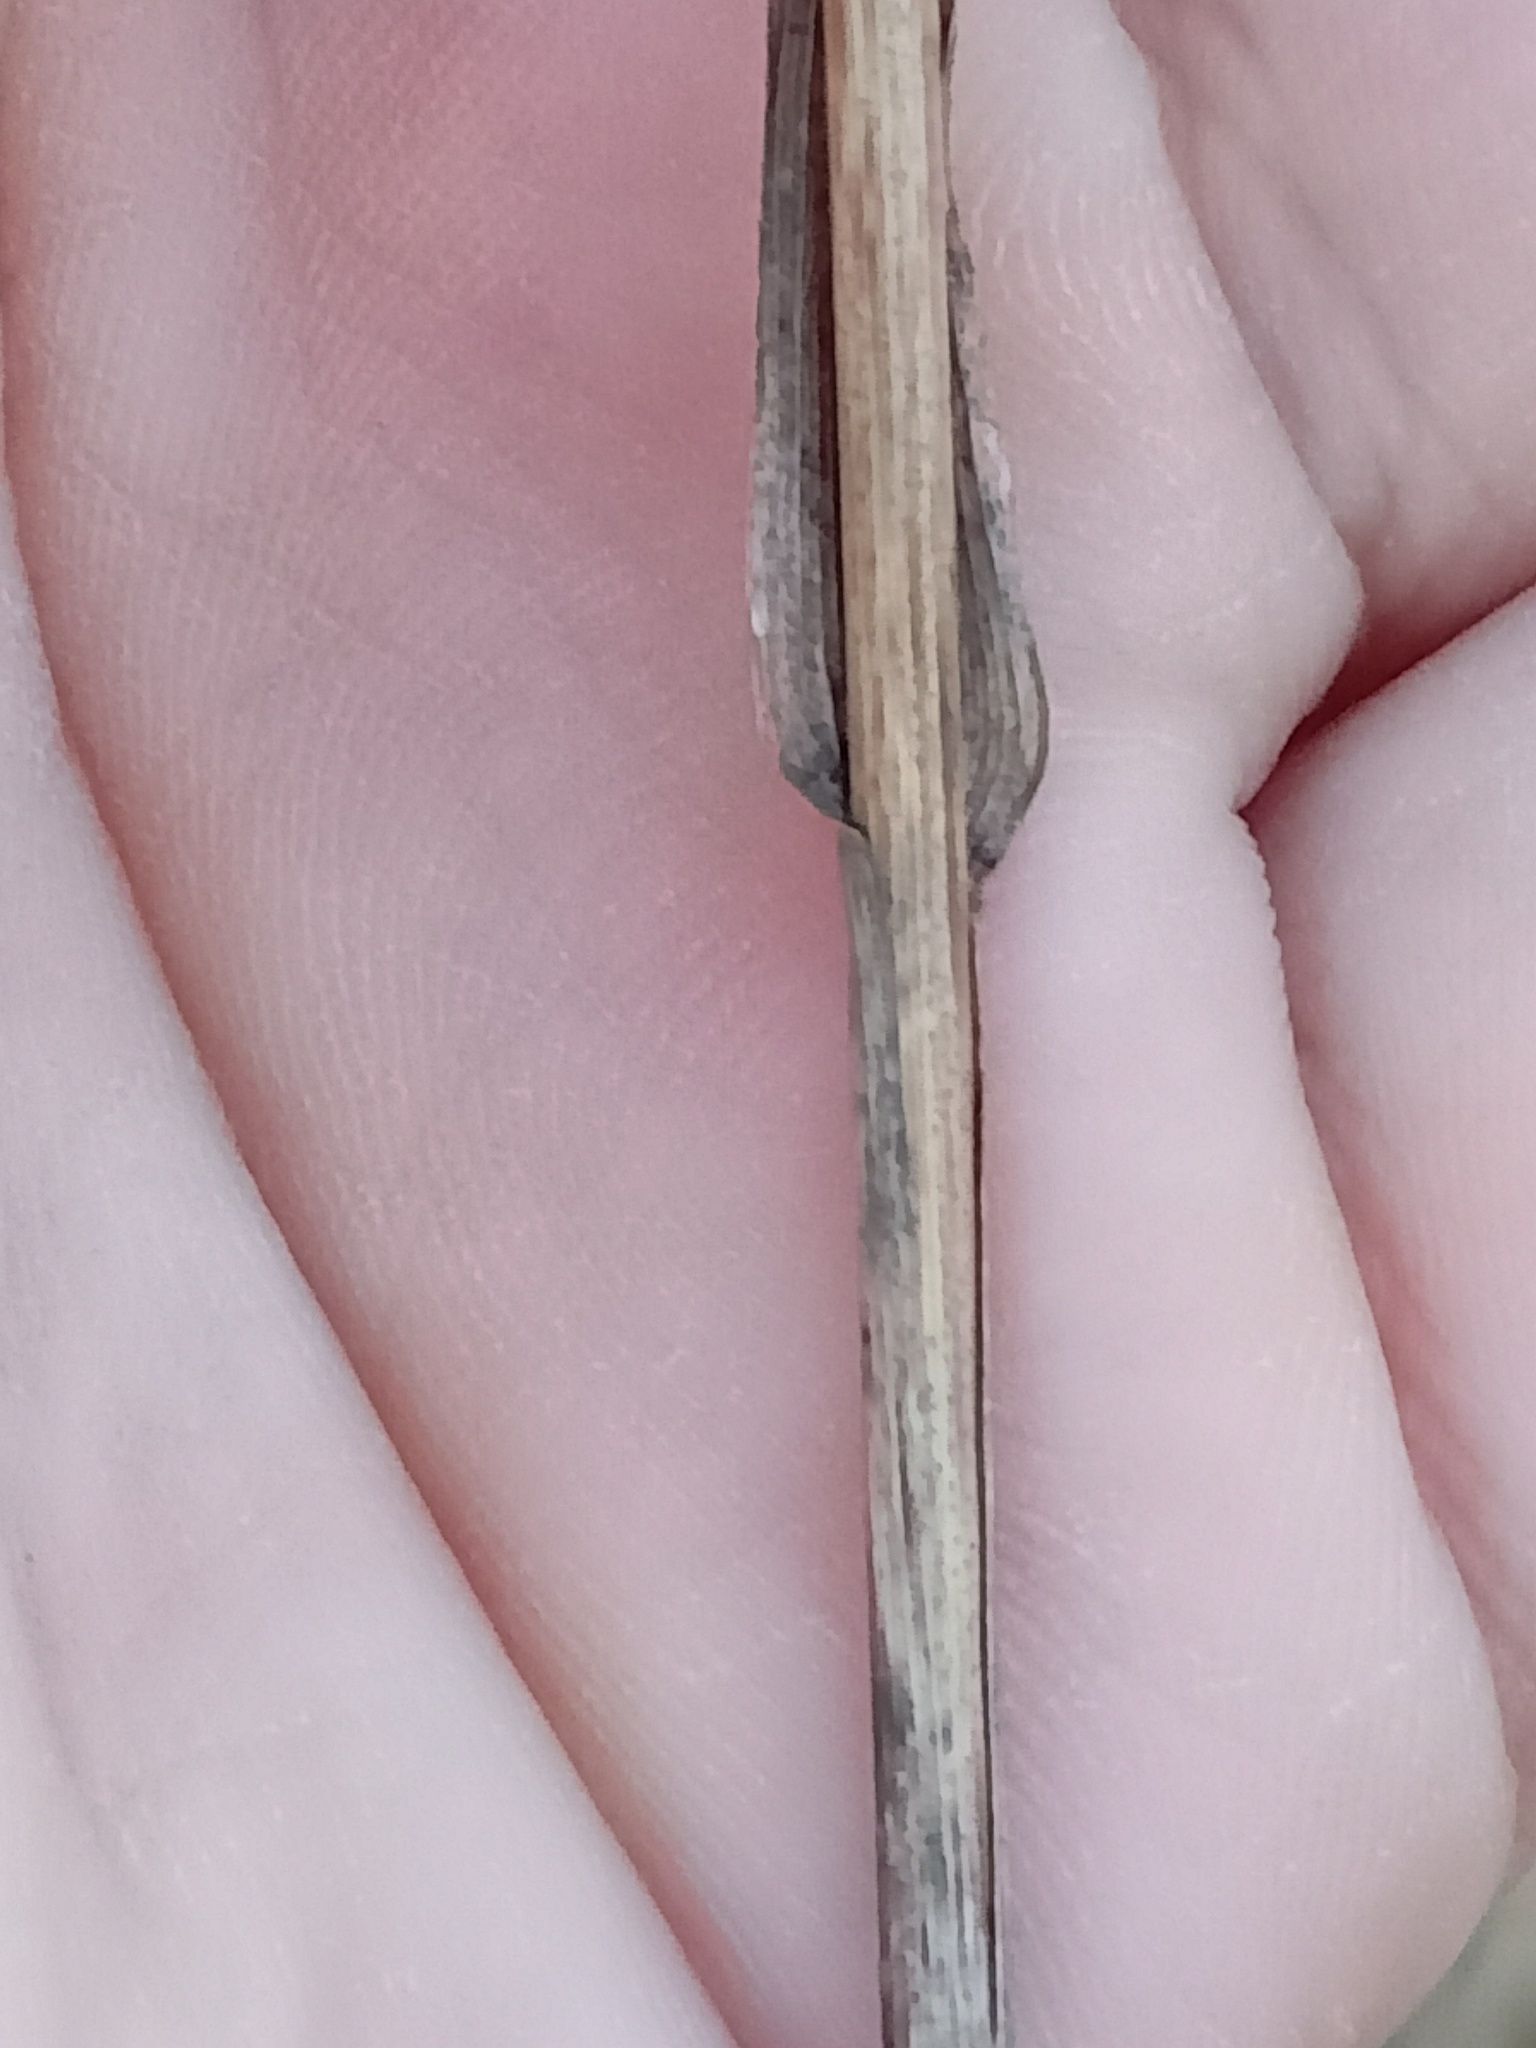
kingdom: Plantae
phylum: Tracheophyta
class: Liliopsida
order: Poales
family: Poaceae
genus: Phleum
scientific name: Phleum pratense
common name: Timothy grass
